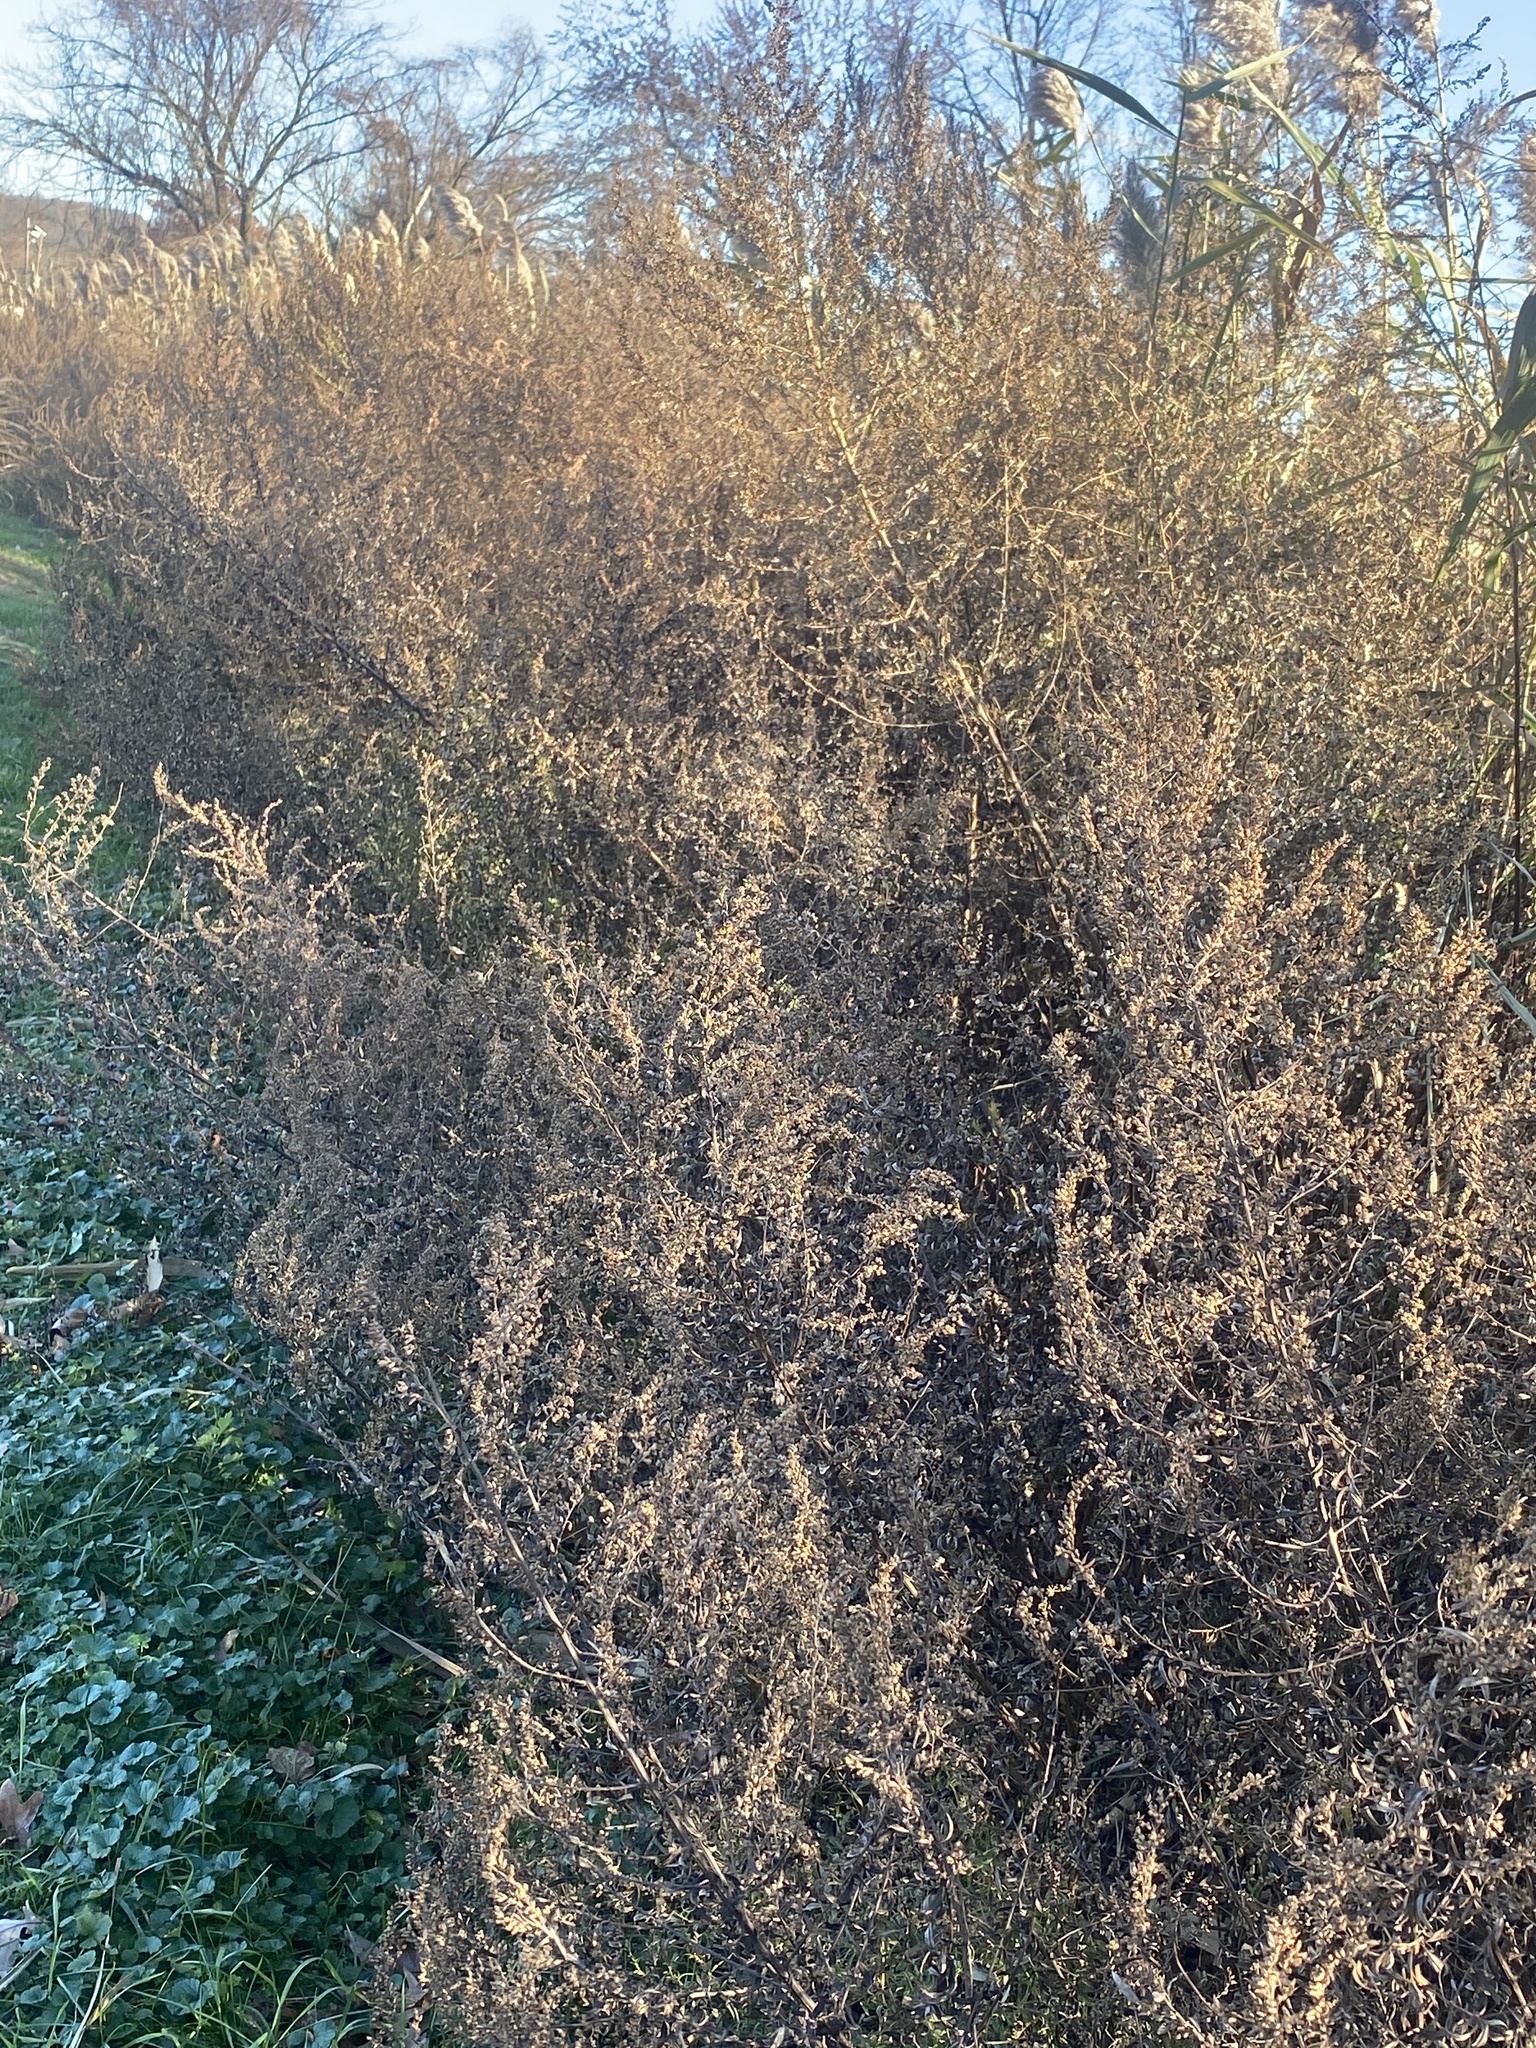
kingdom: Plantae
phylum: Tracheophyta
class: Magnoliopsida
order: Asterales
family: Asteraceae
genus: Artemisia
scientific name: Artemisia vulgaris
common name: Mugwort
